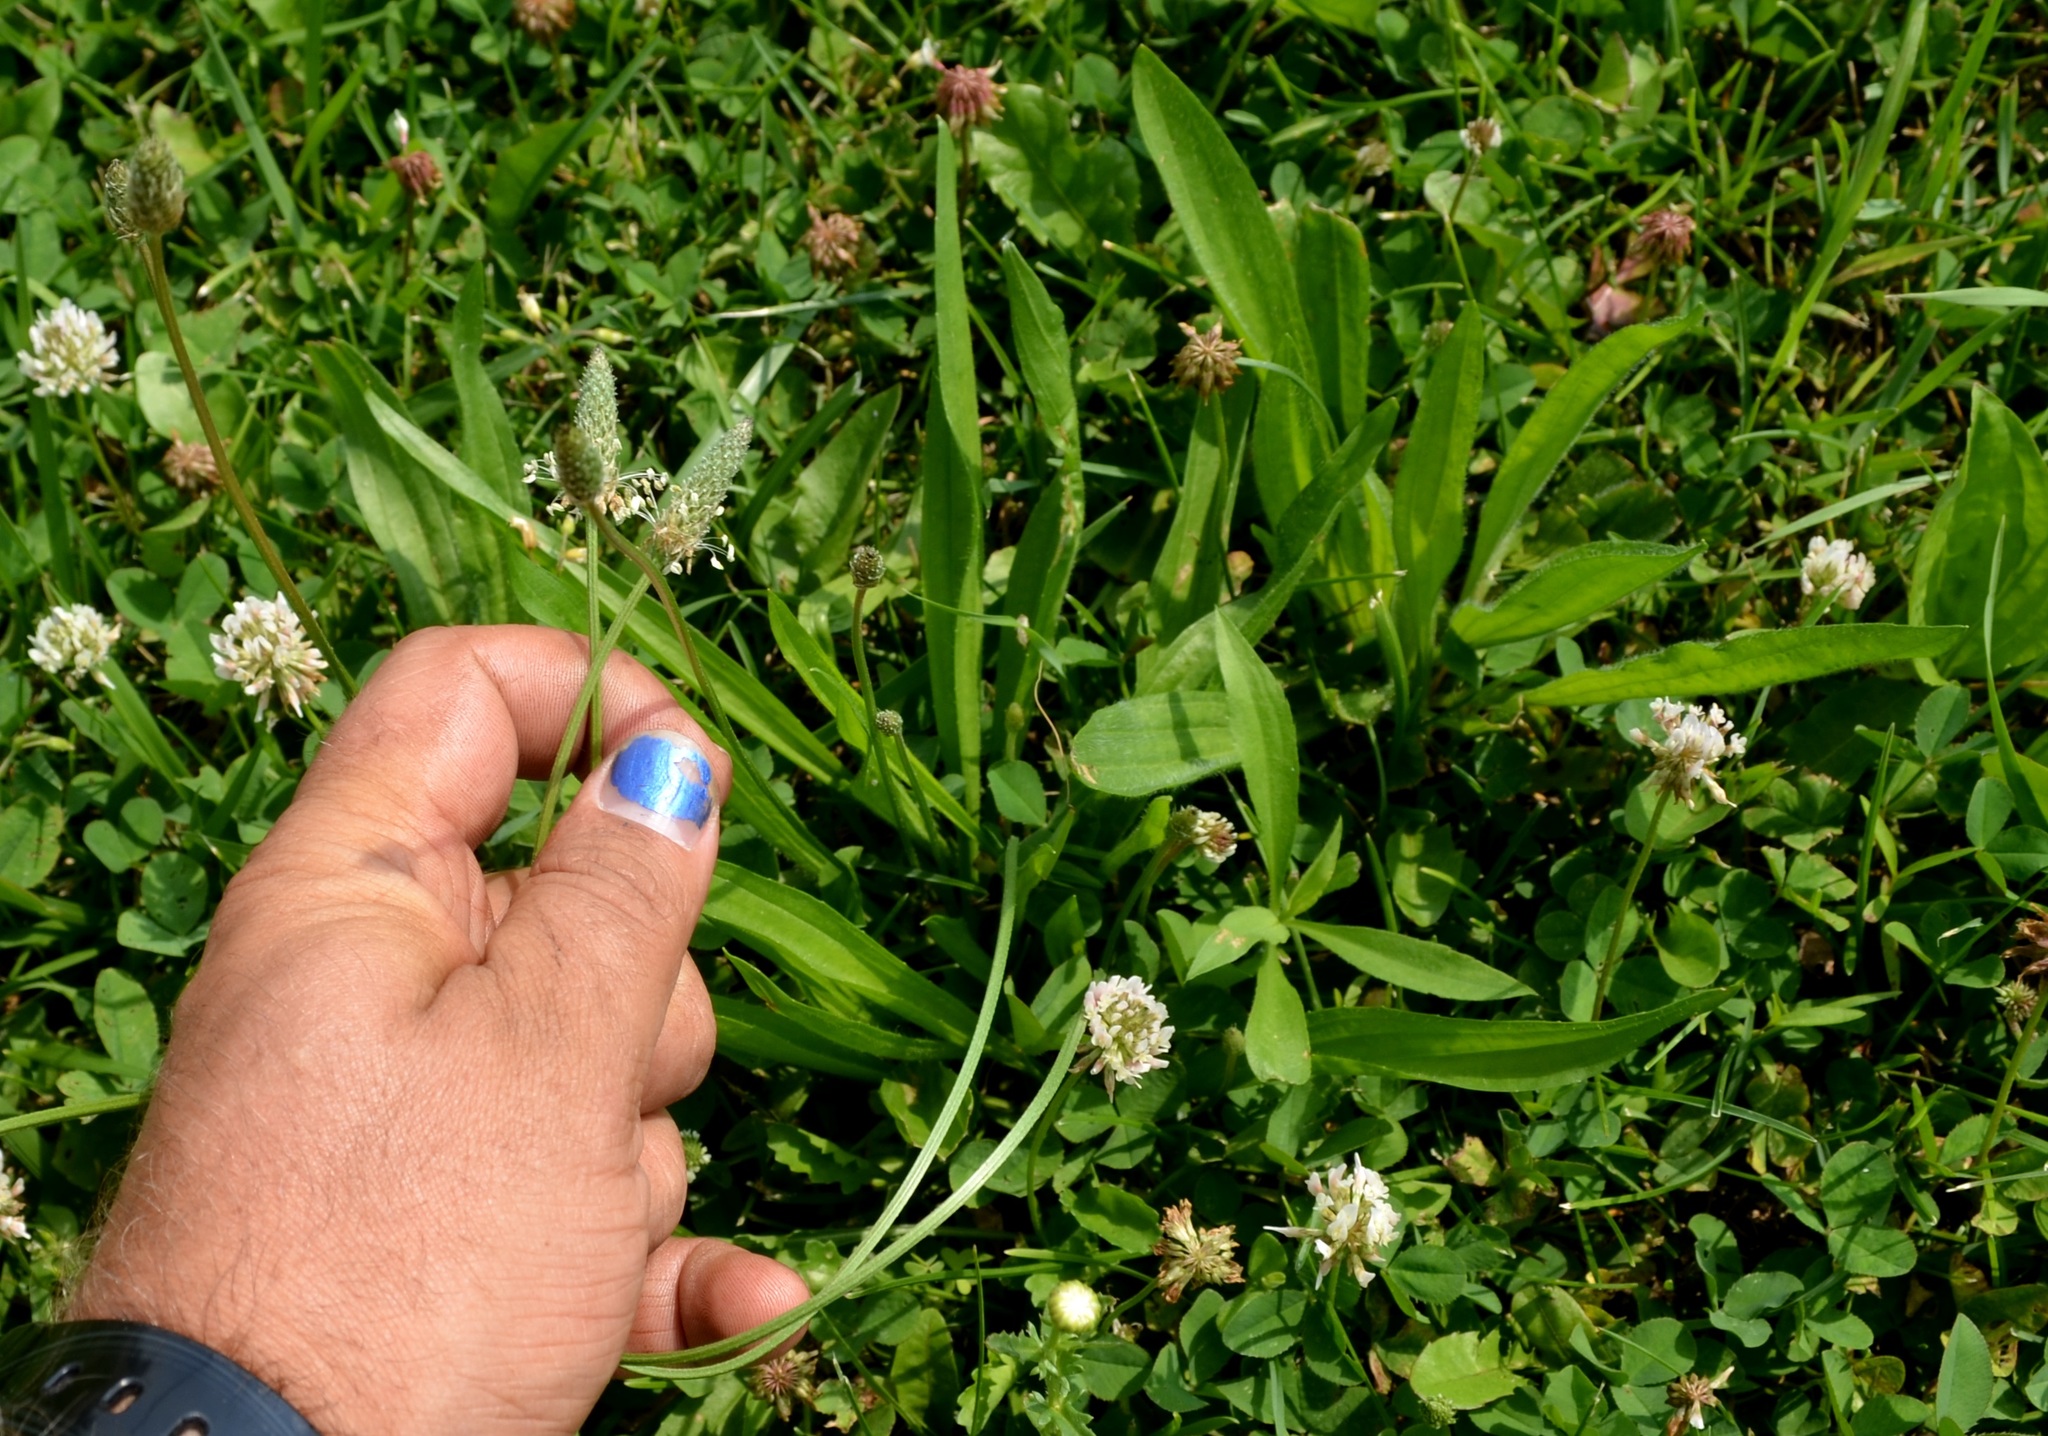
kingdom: Plantae
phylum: Tracheophyta
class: Magnoliopsida
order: Lamiales
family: Plantaginaceae
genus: Plantago
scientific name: Plantago lanceolata
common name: Ribwort plantain
